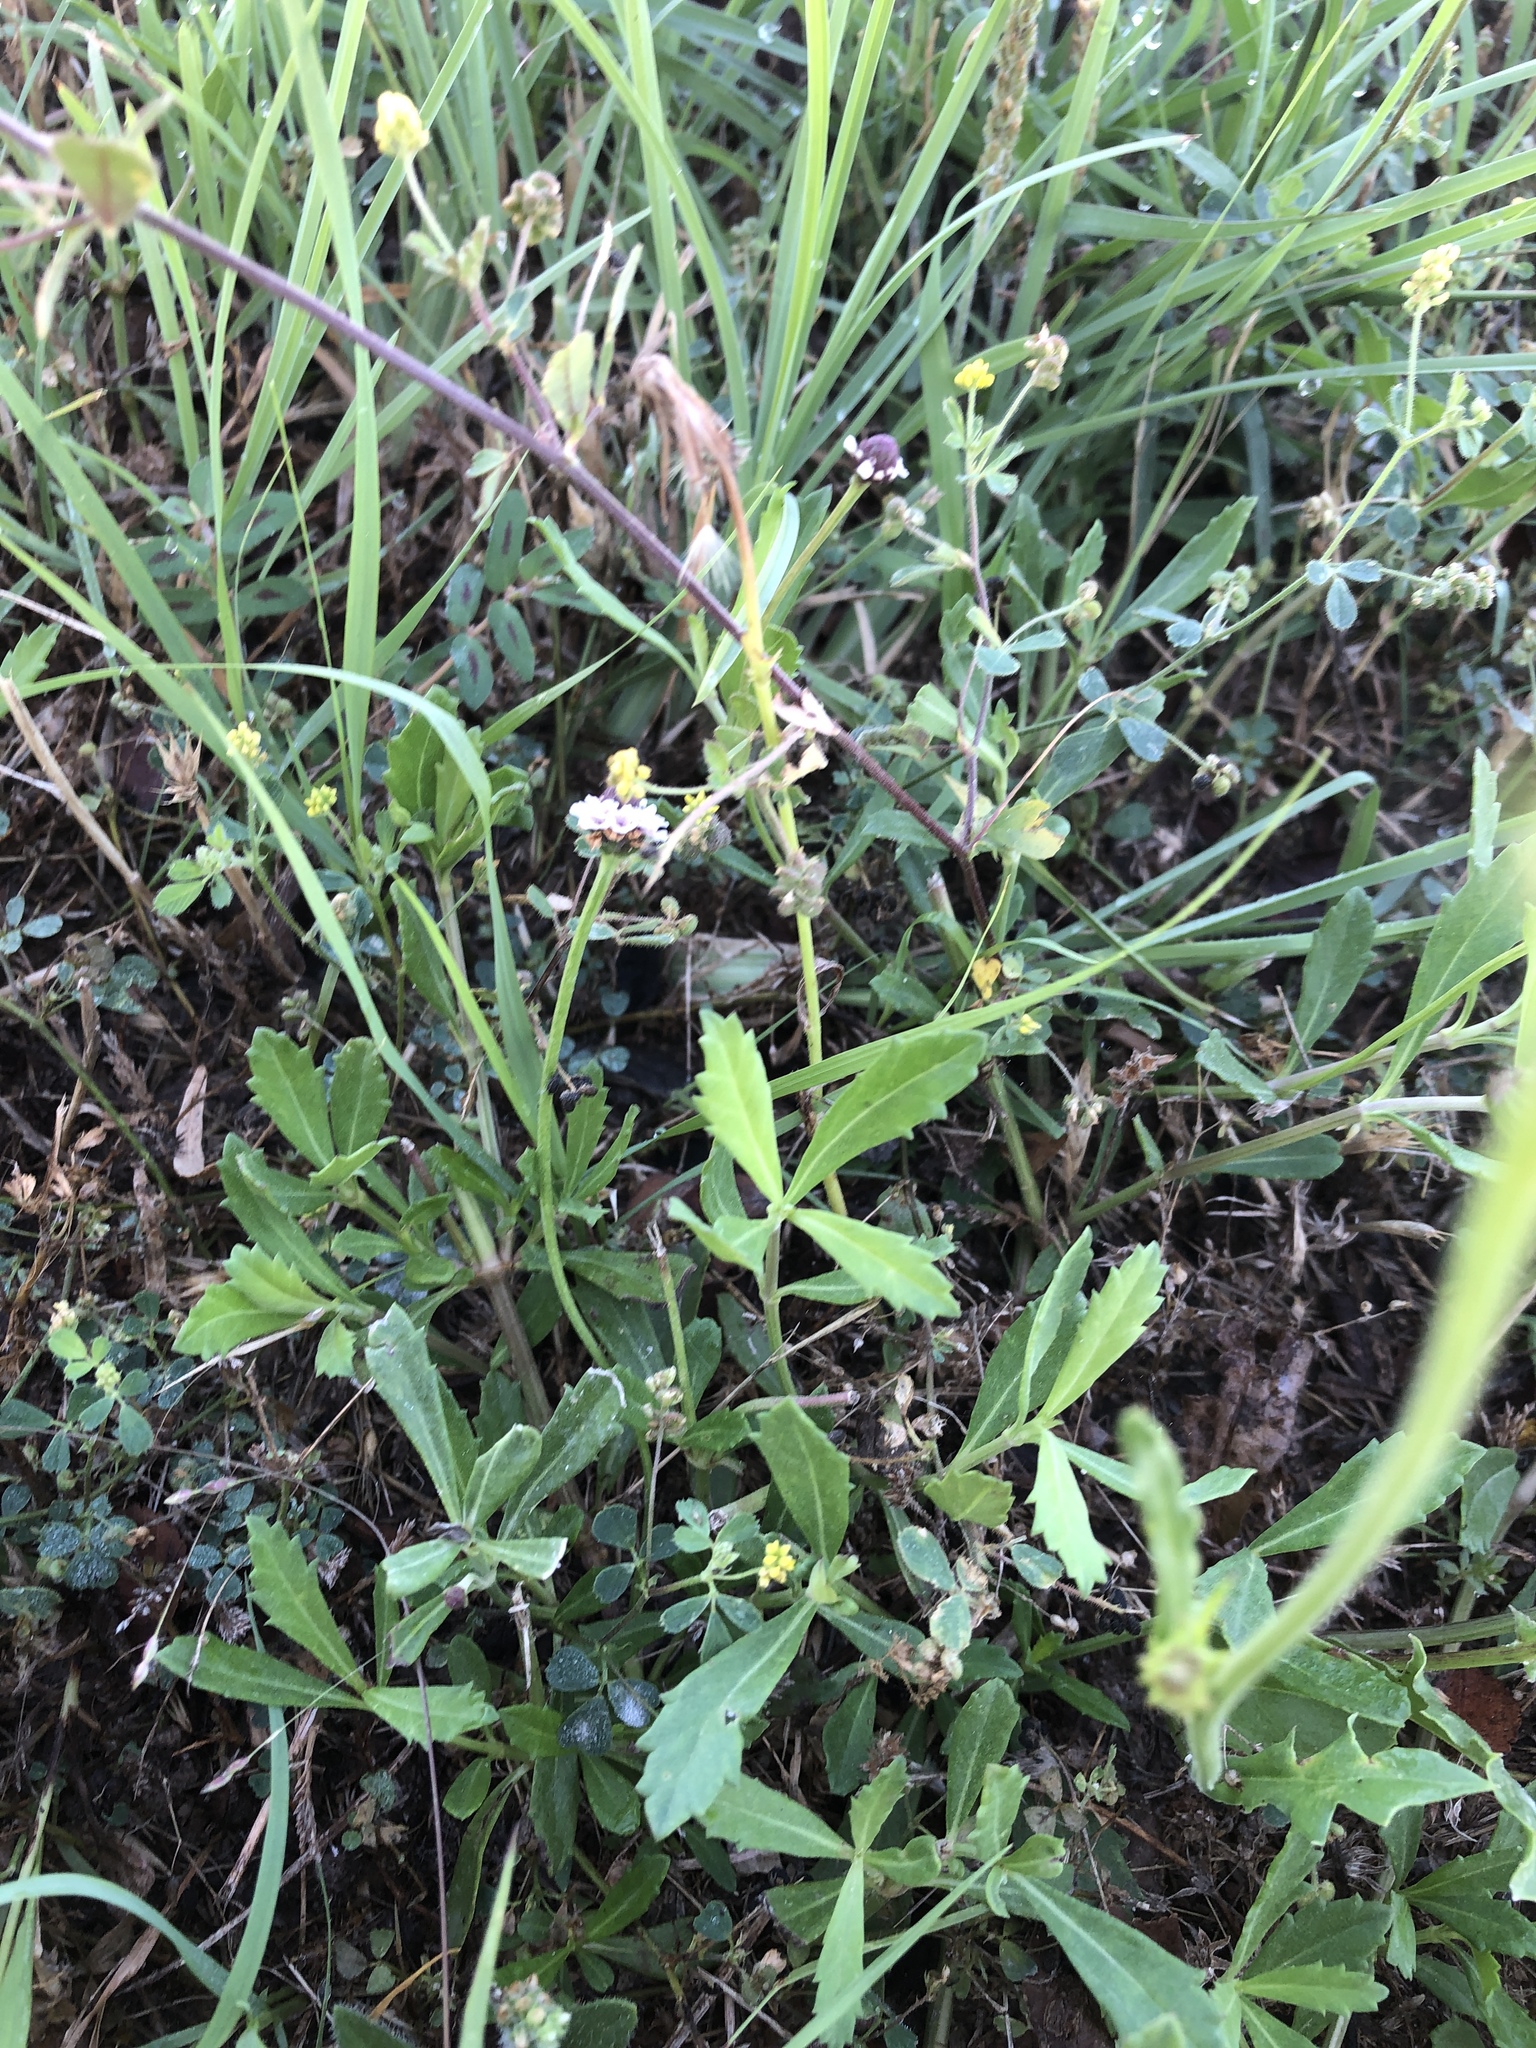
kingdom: Plantae
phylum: Tracheophyta
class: Magnoliopsida
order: Lamiales
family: Verbenaceae
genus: Phyla
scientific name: Phyla nodiflora
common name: Frogfruit
